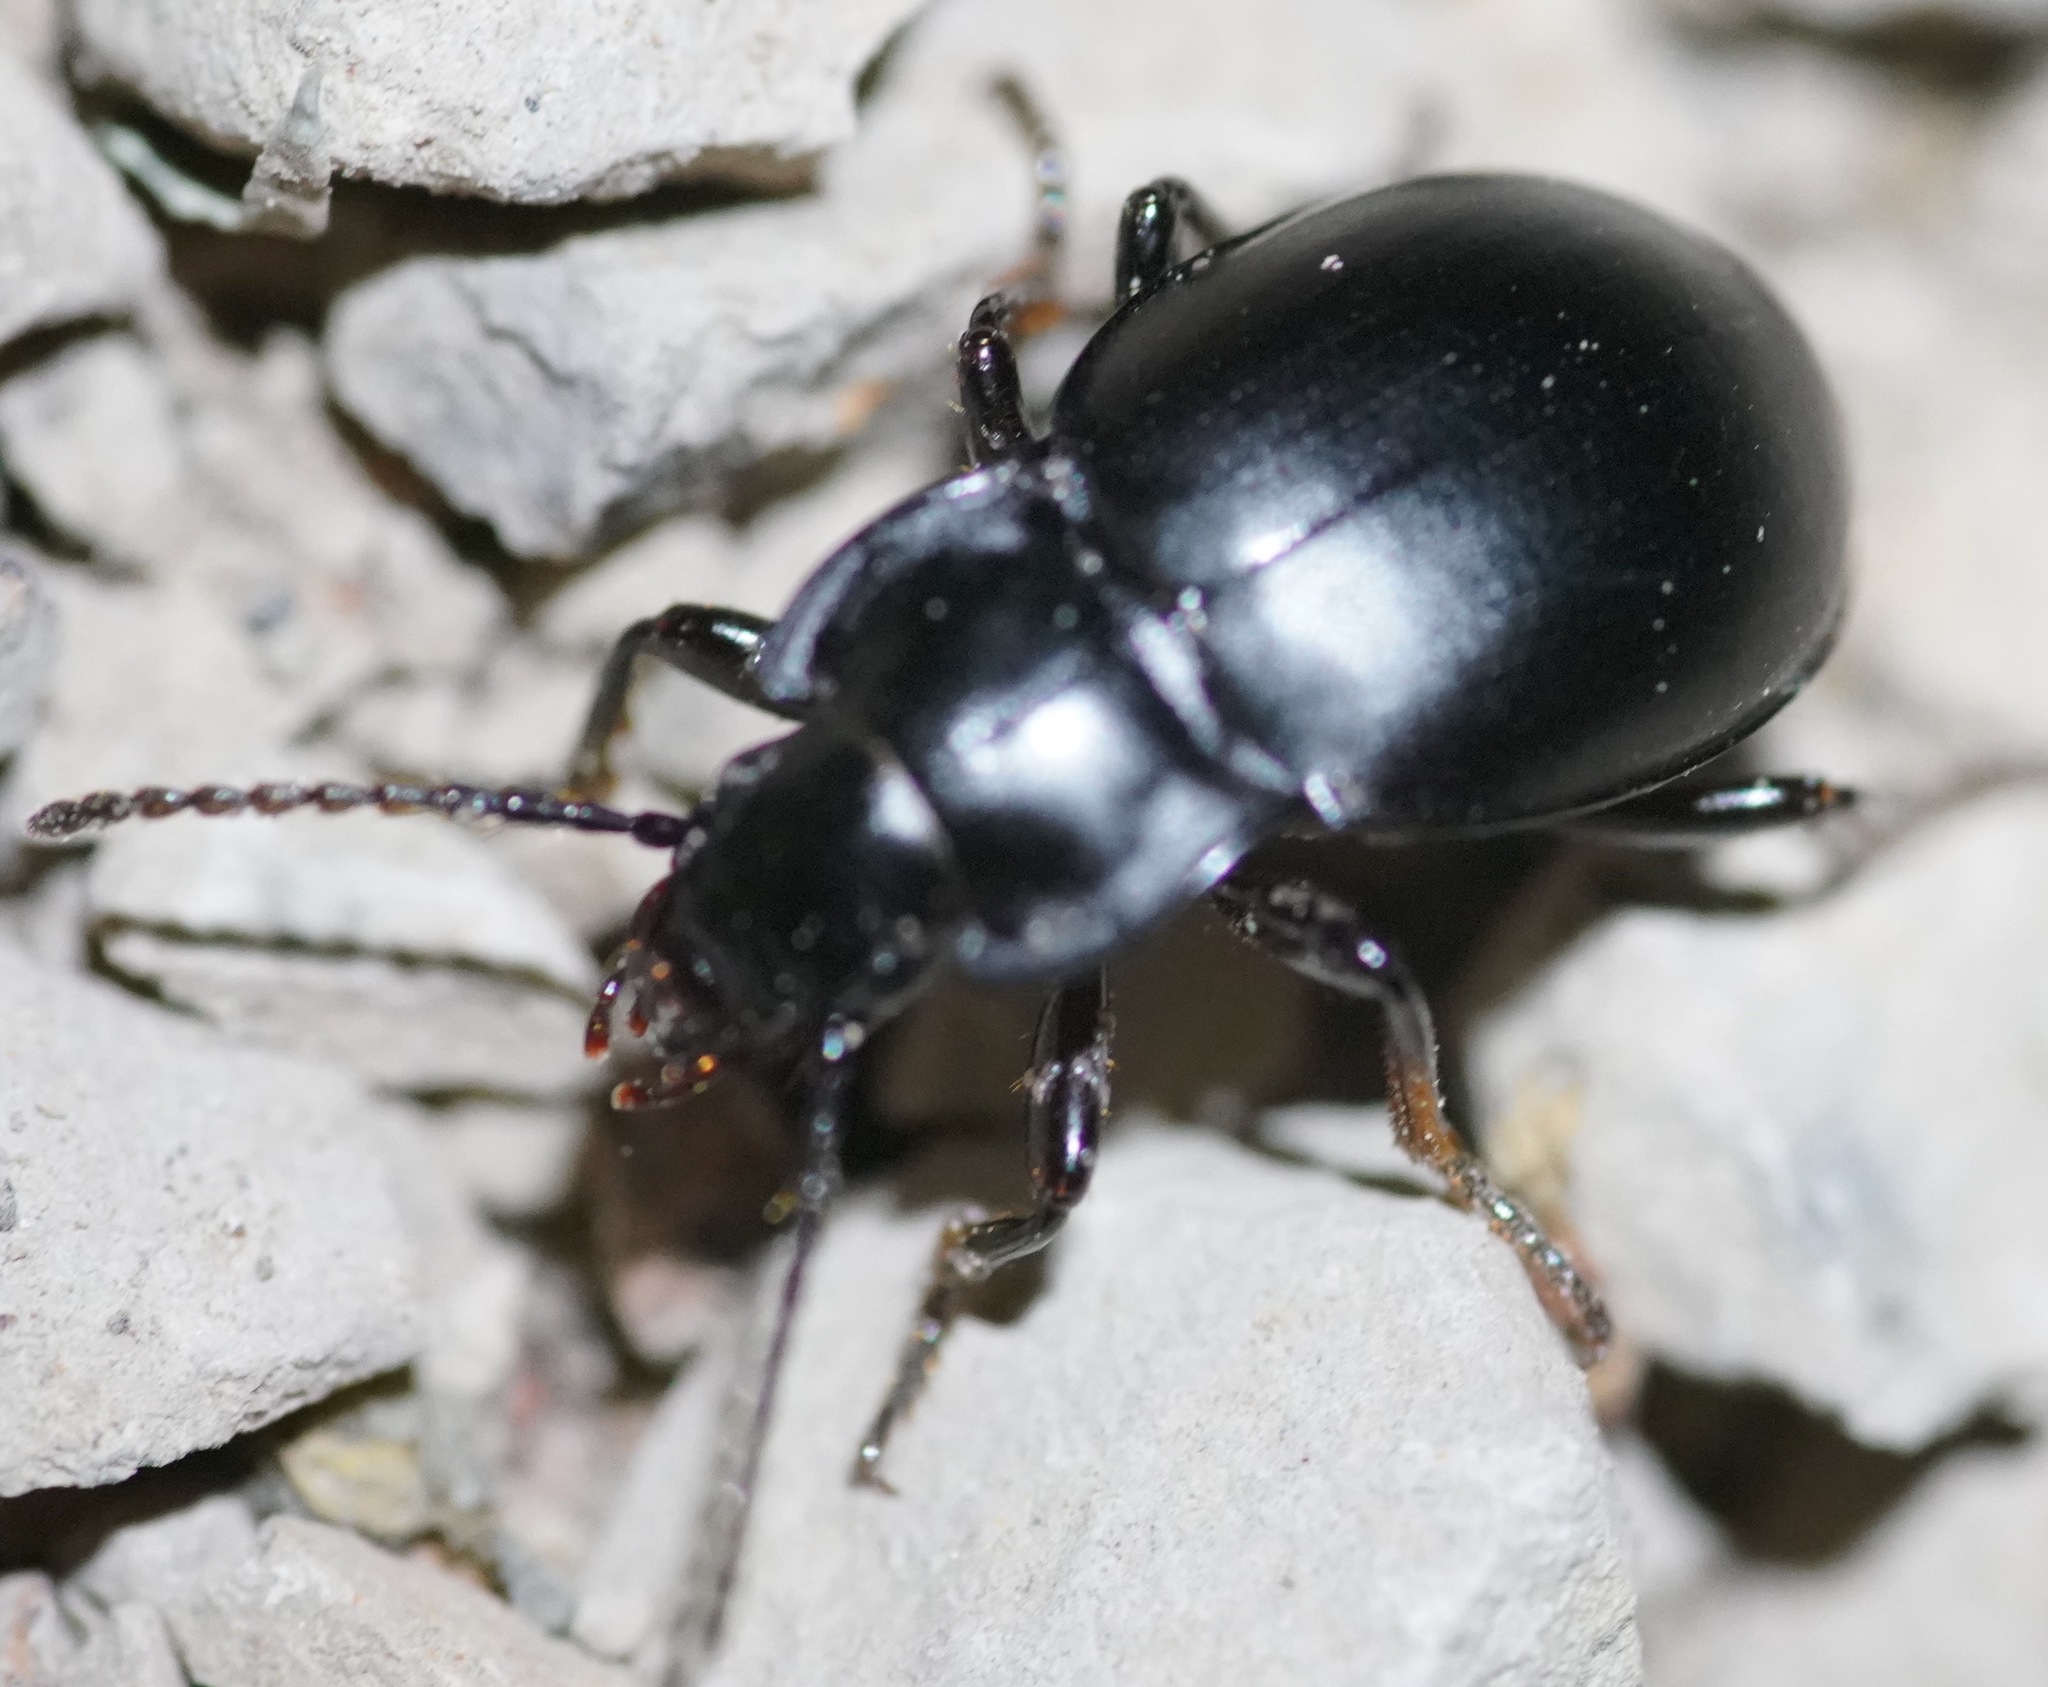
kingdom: Animalia
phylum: Arthropoda
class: Insecta
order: Coleoptera
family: Carabidae
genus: Metrius
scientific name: Metrius contractus
